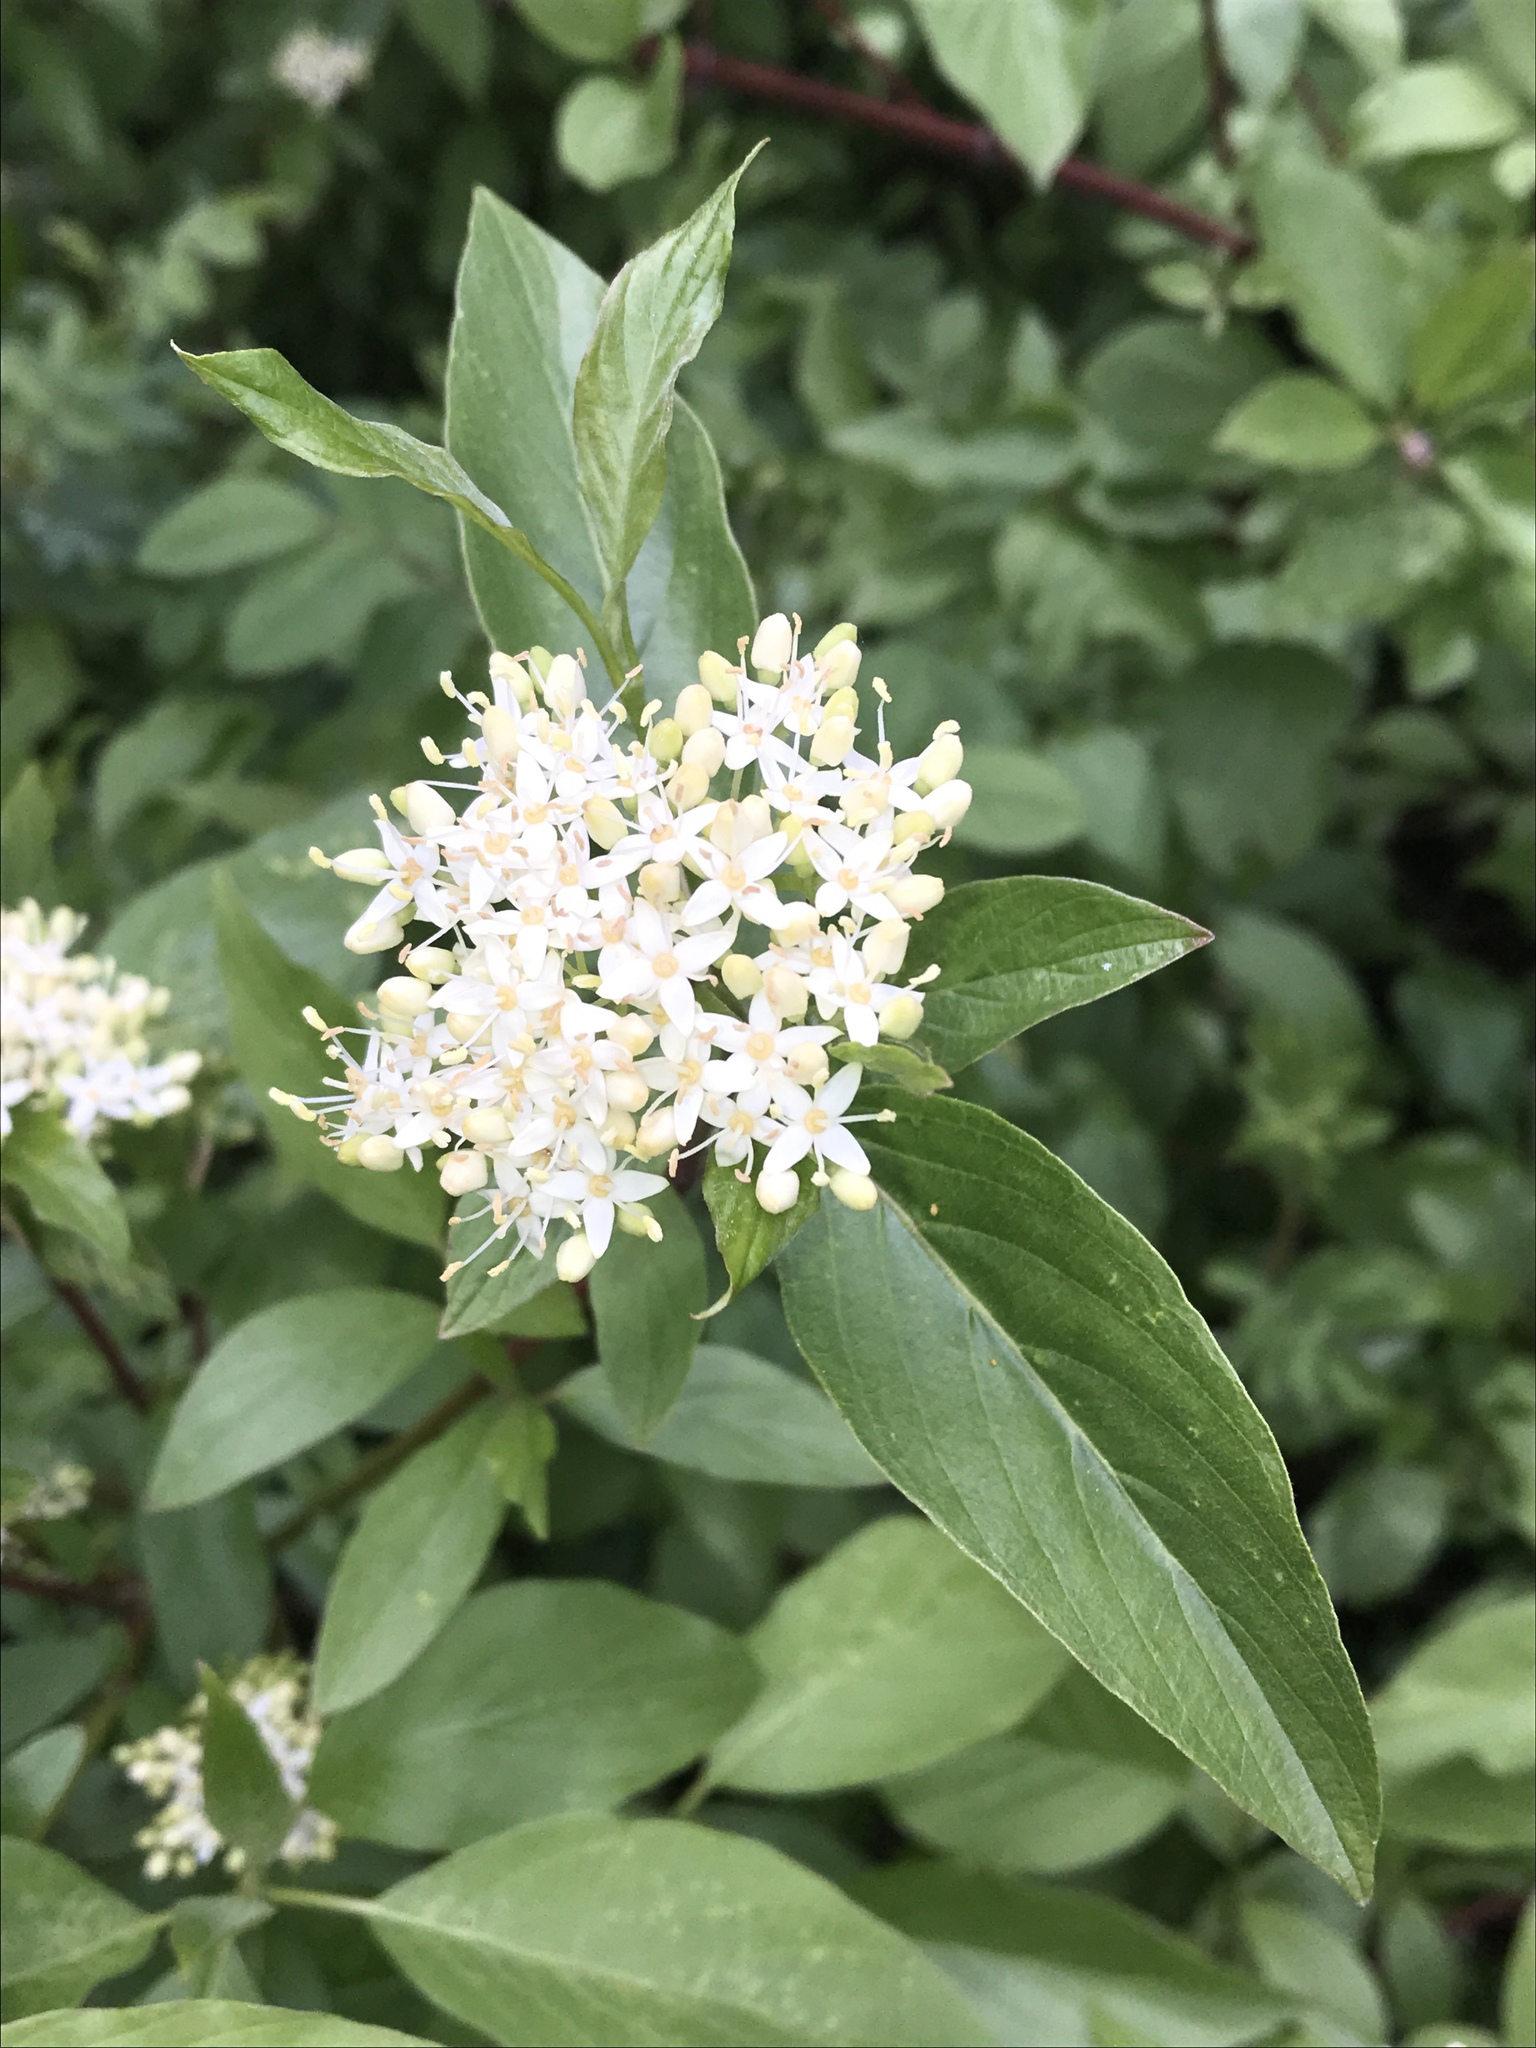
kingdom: Plantae
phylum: Tracheophyta
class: Magnoliopsida
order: Cornales
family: Cornaceae
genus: Cornus
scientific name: Cornus sericea
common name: Red-osier dogwood
